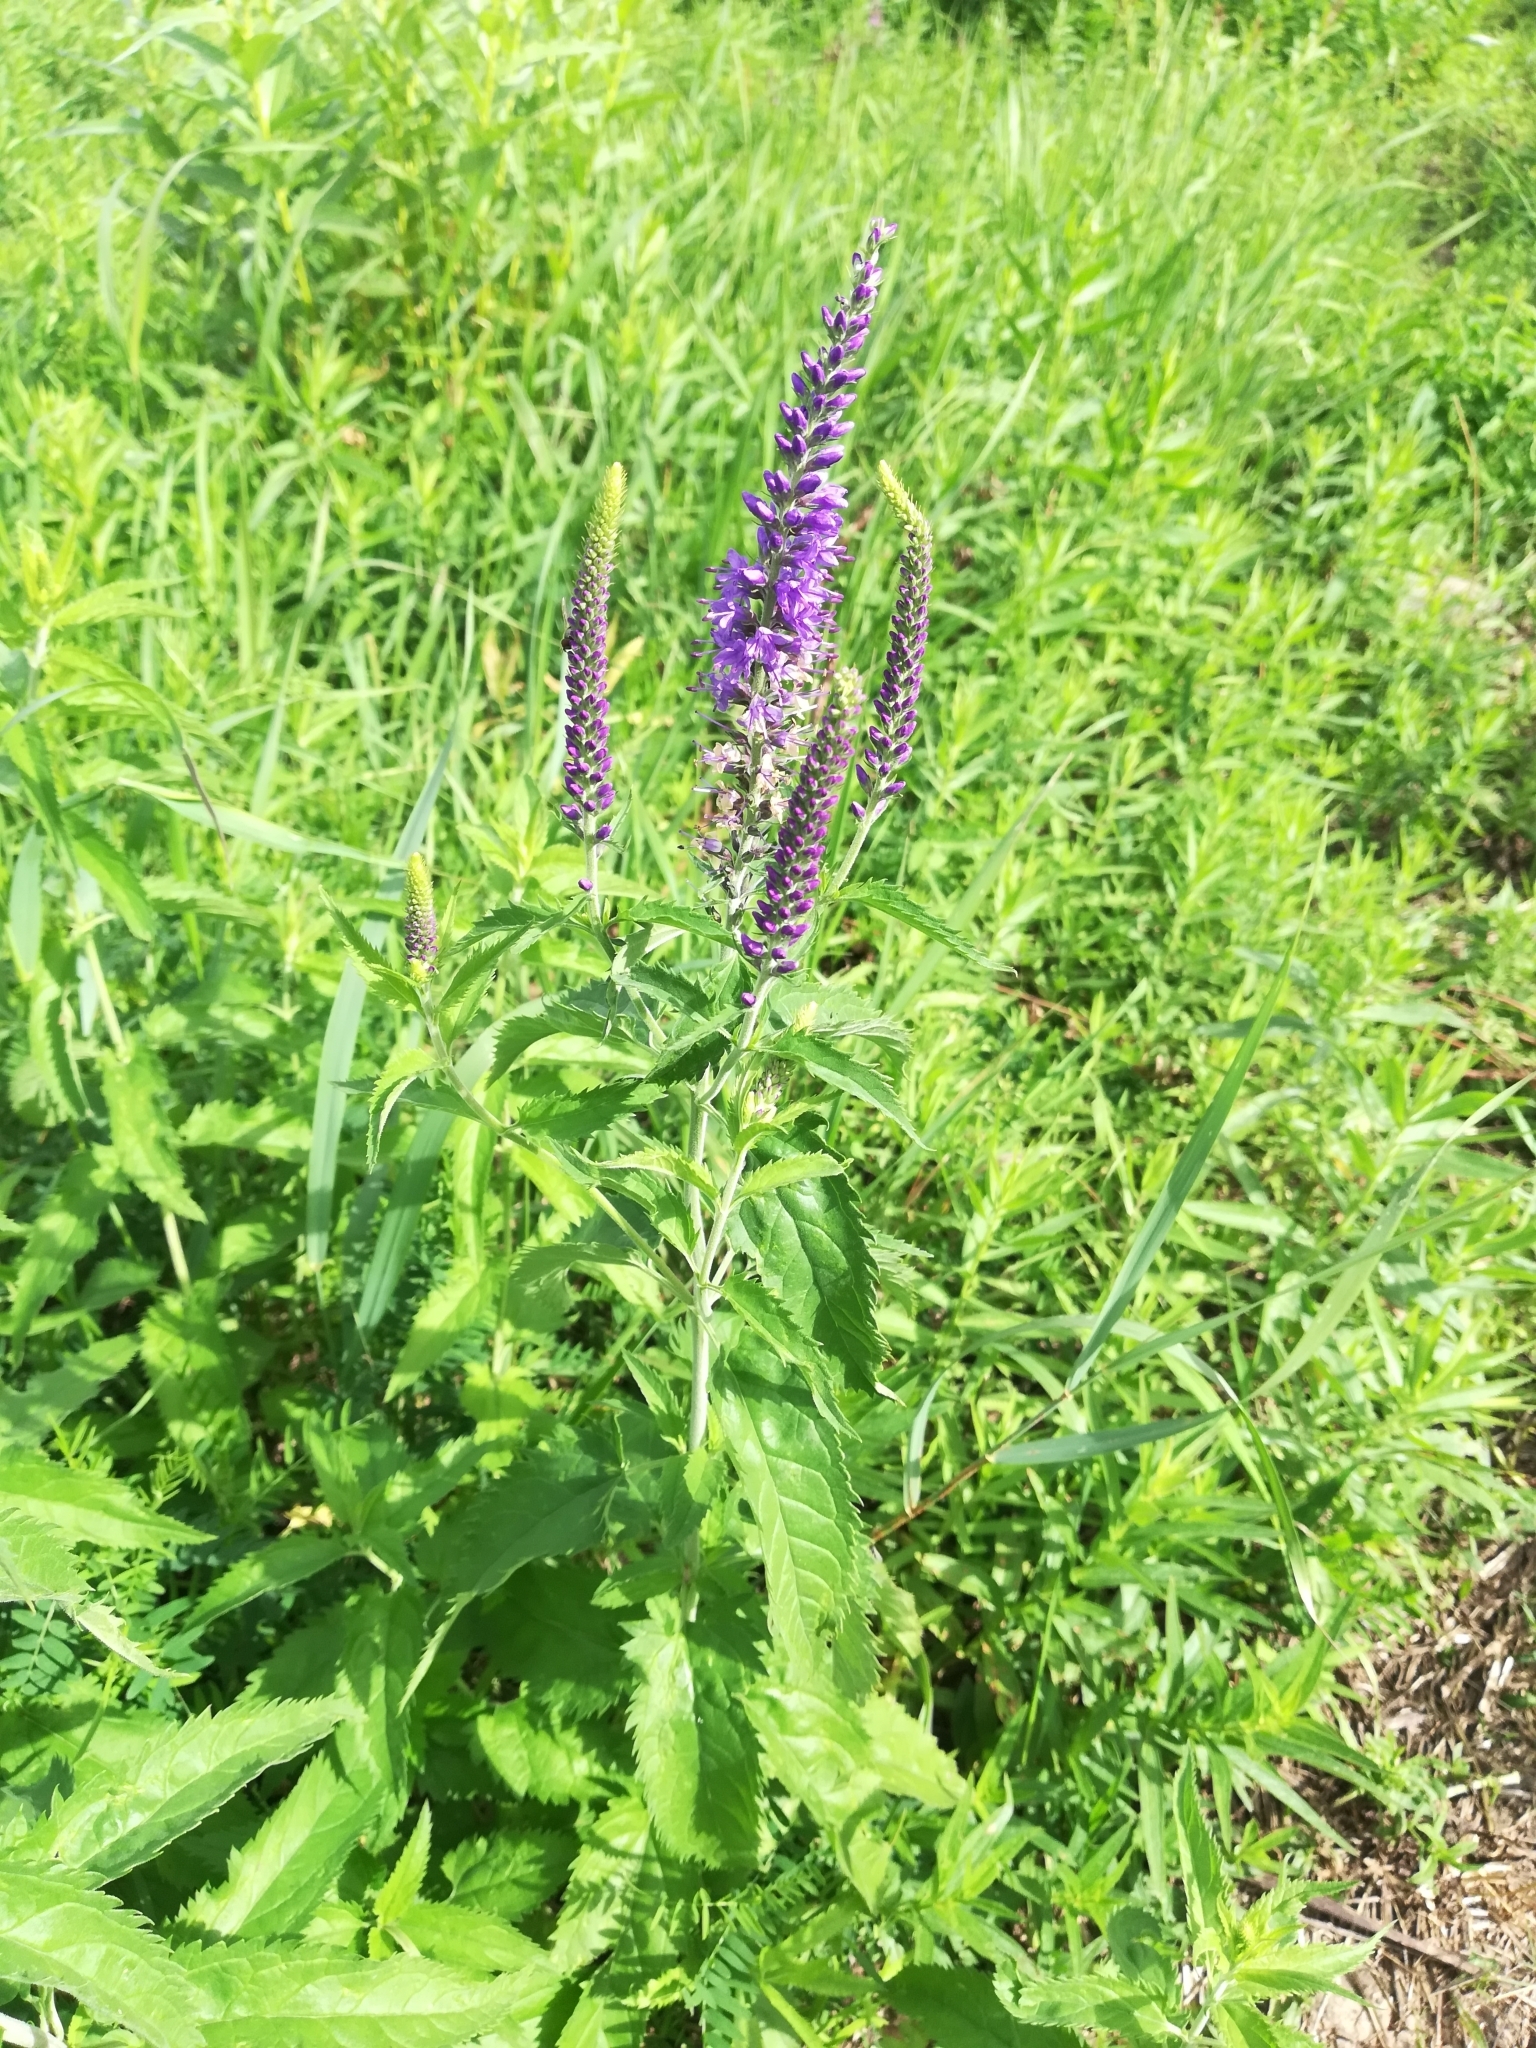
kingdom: Plantae
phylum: Tracheophyta
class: Magnoliopsida
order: Lamiales
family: Plantaginaceae
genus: Veronica
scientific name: Veronica longifolia
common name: Garden speedwell
